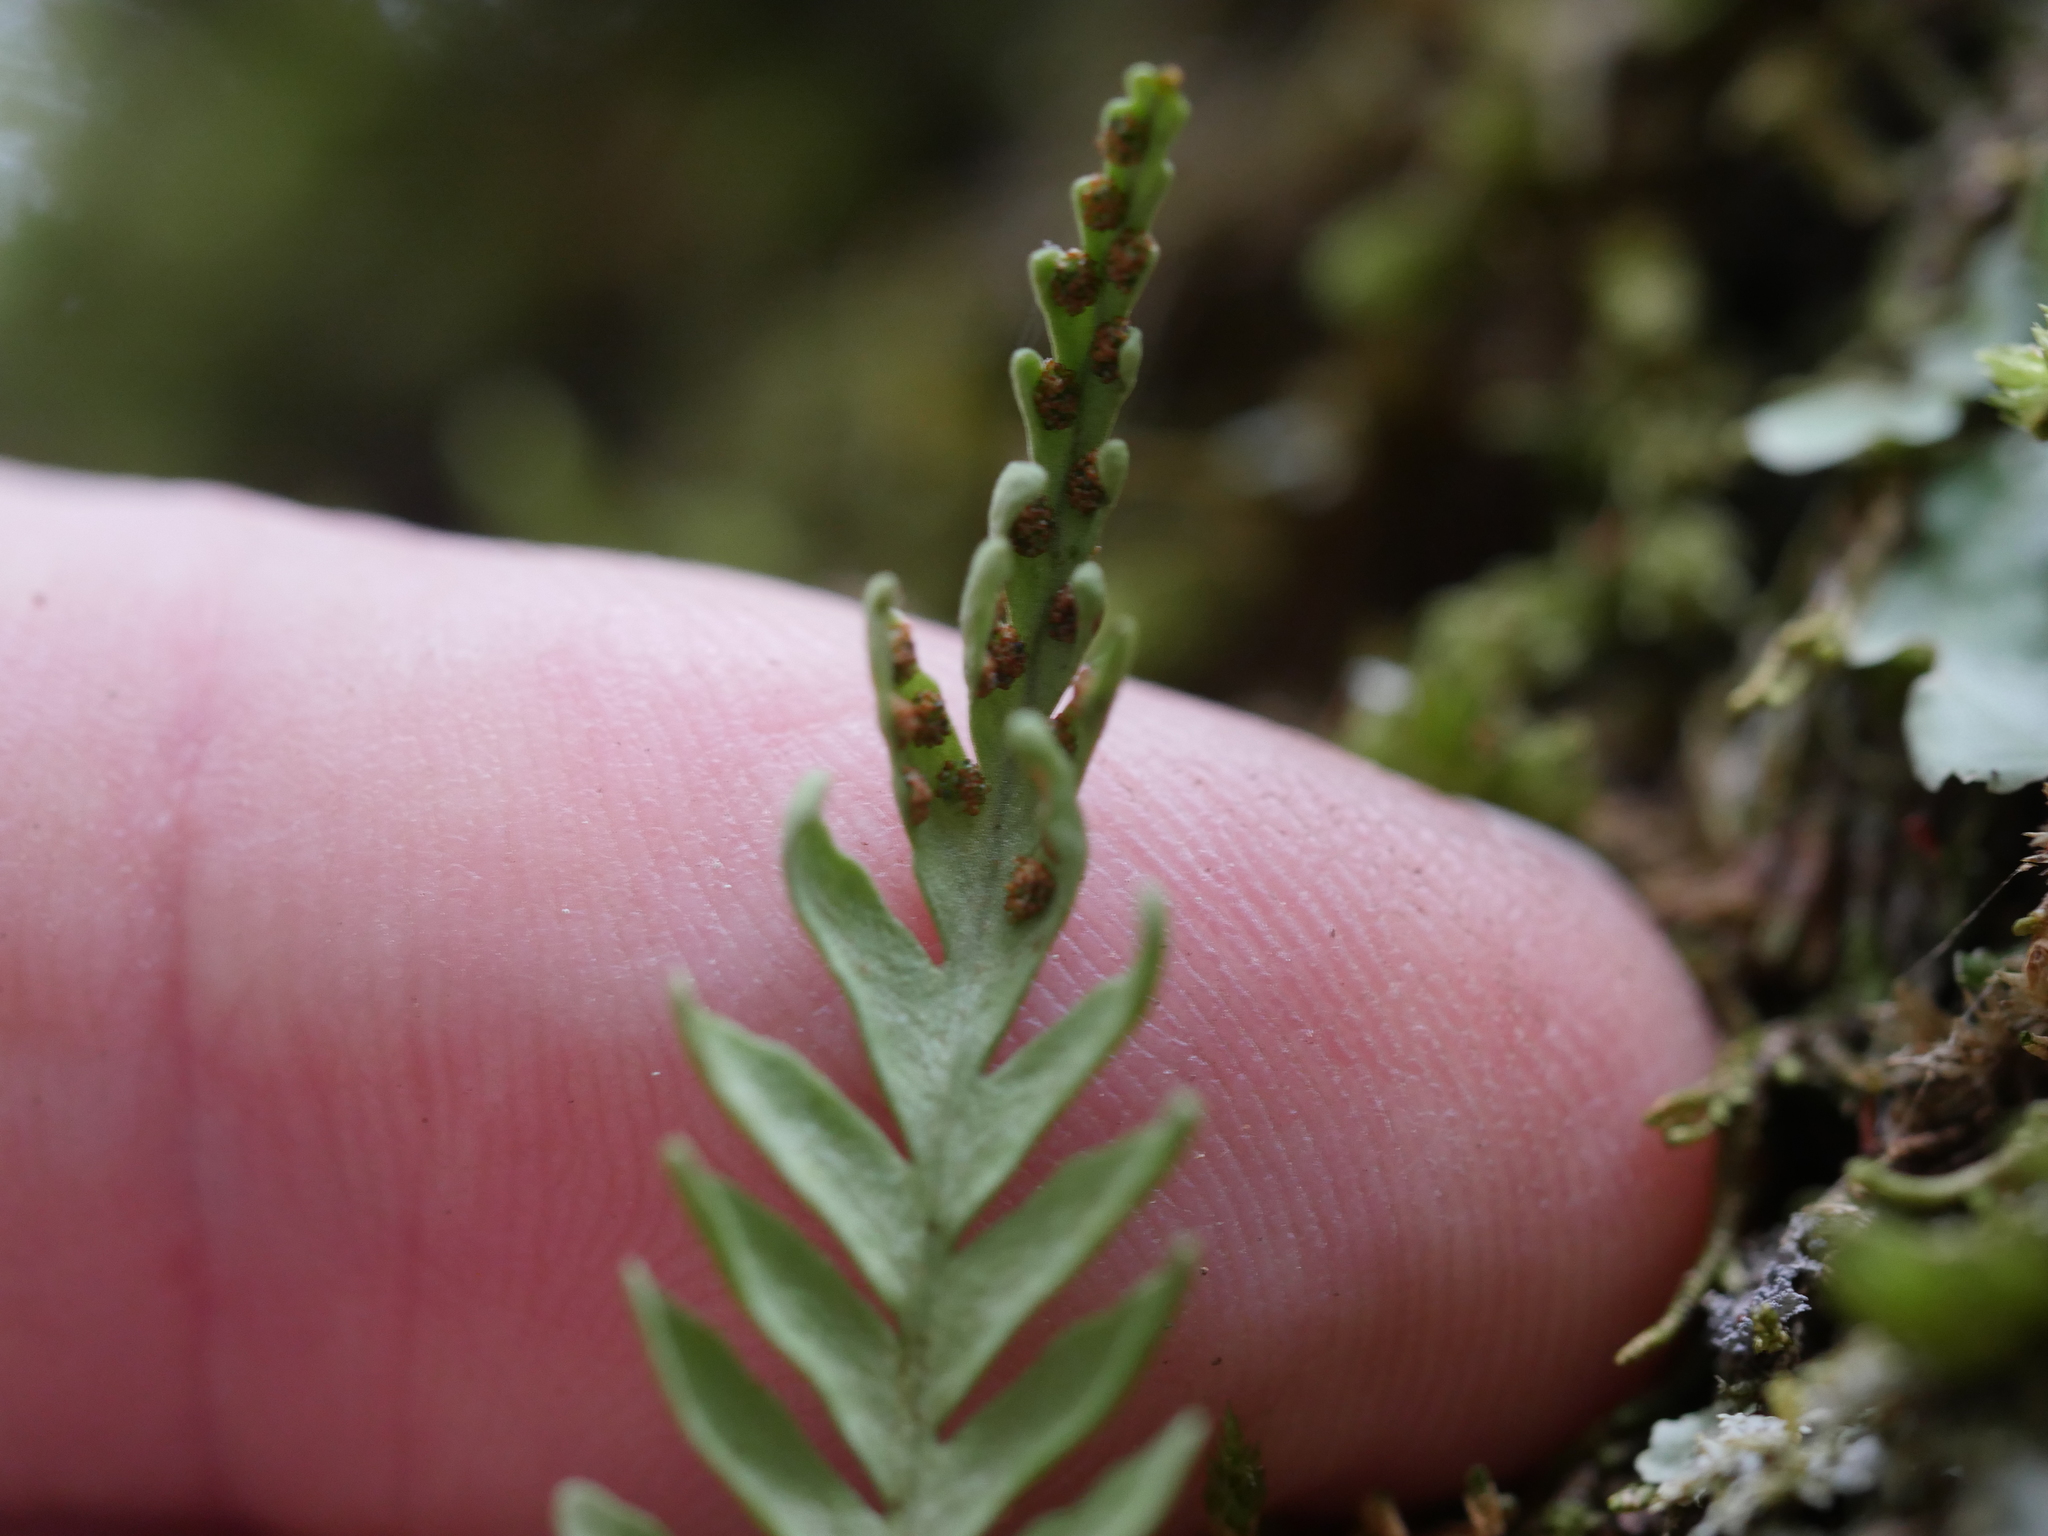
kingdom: Plantae
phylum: Tracheophyta
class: Polypodiopsida
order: Polypodiales
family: Polypodiaceae
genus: Notogrammitis
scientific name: Notogrammitis heterophylla
